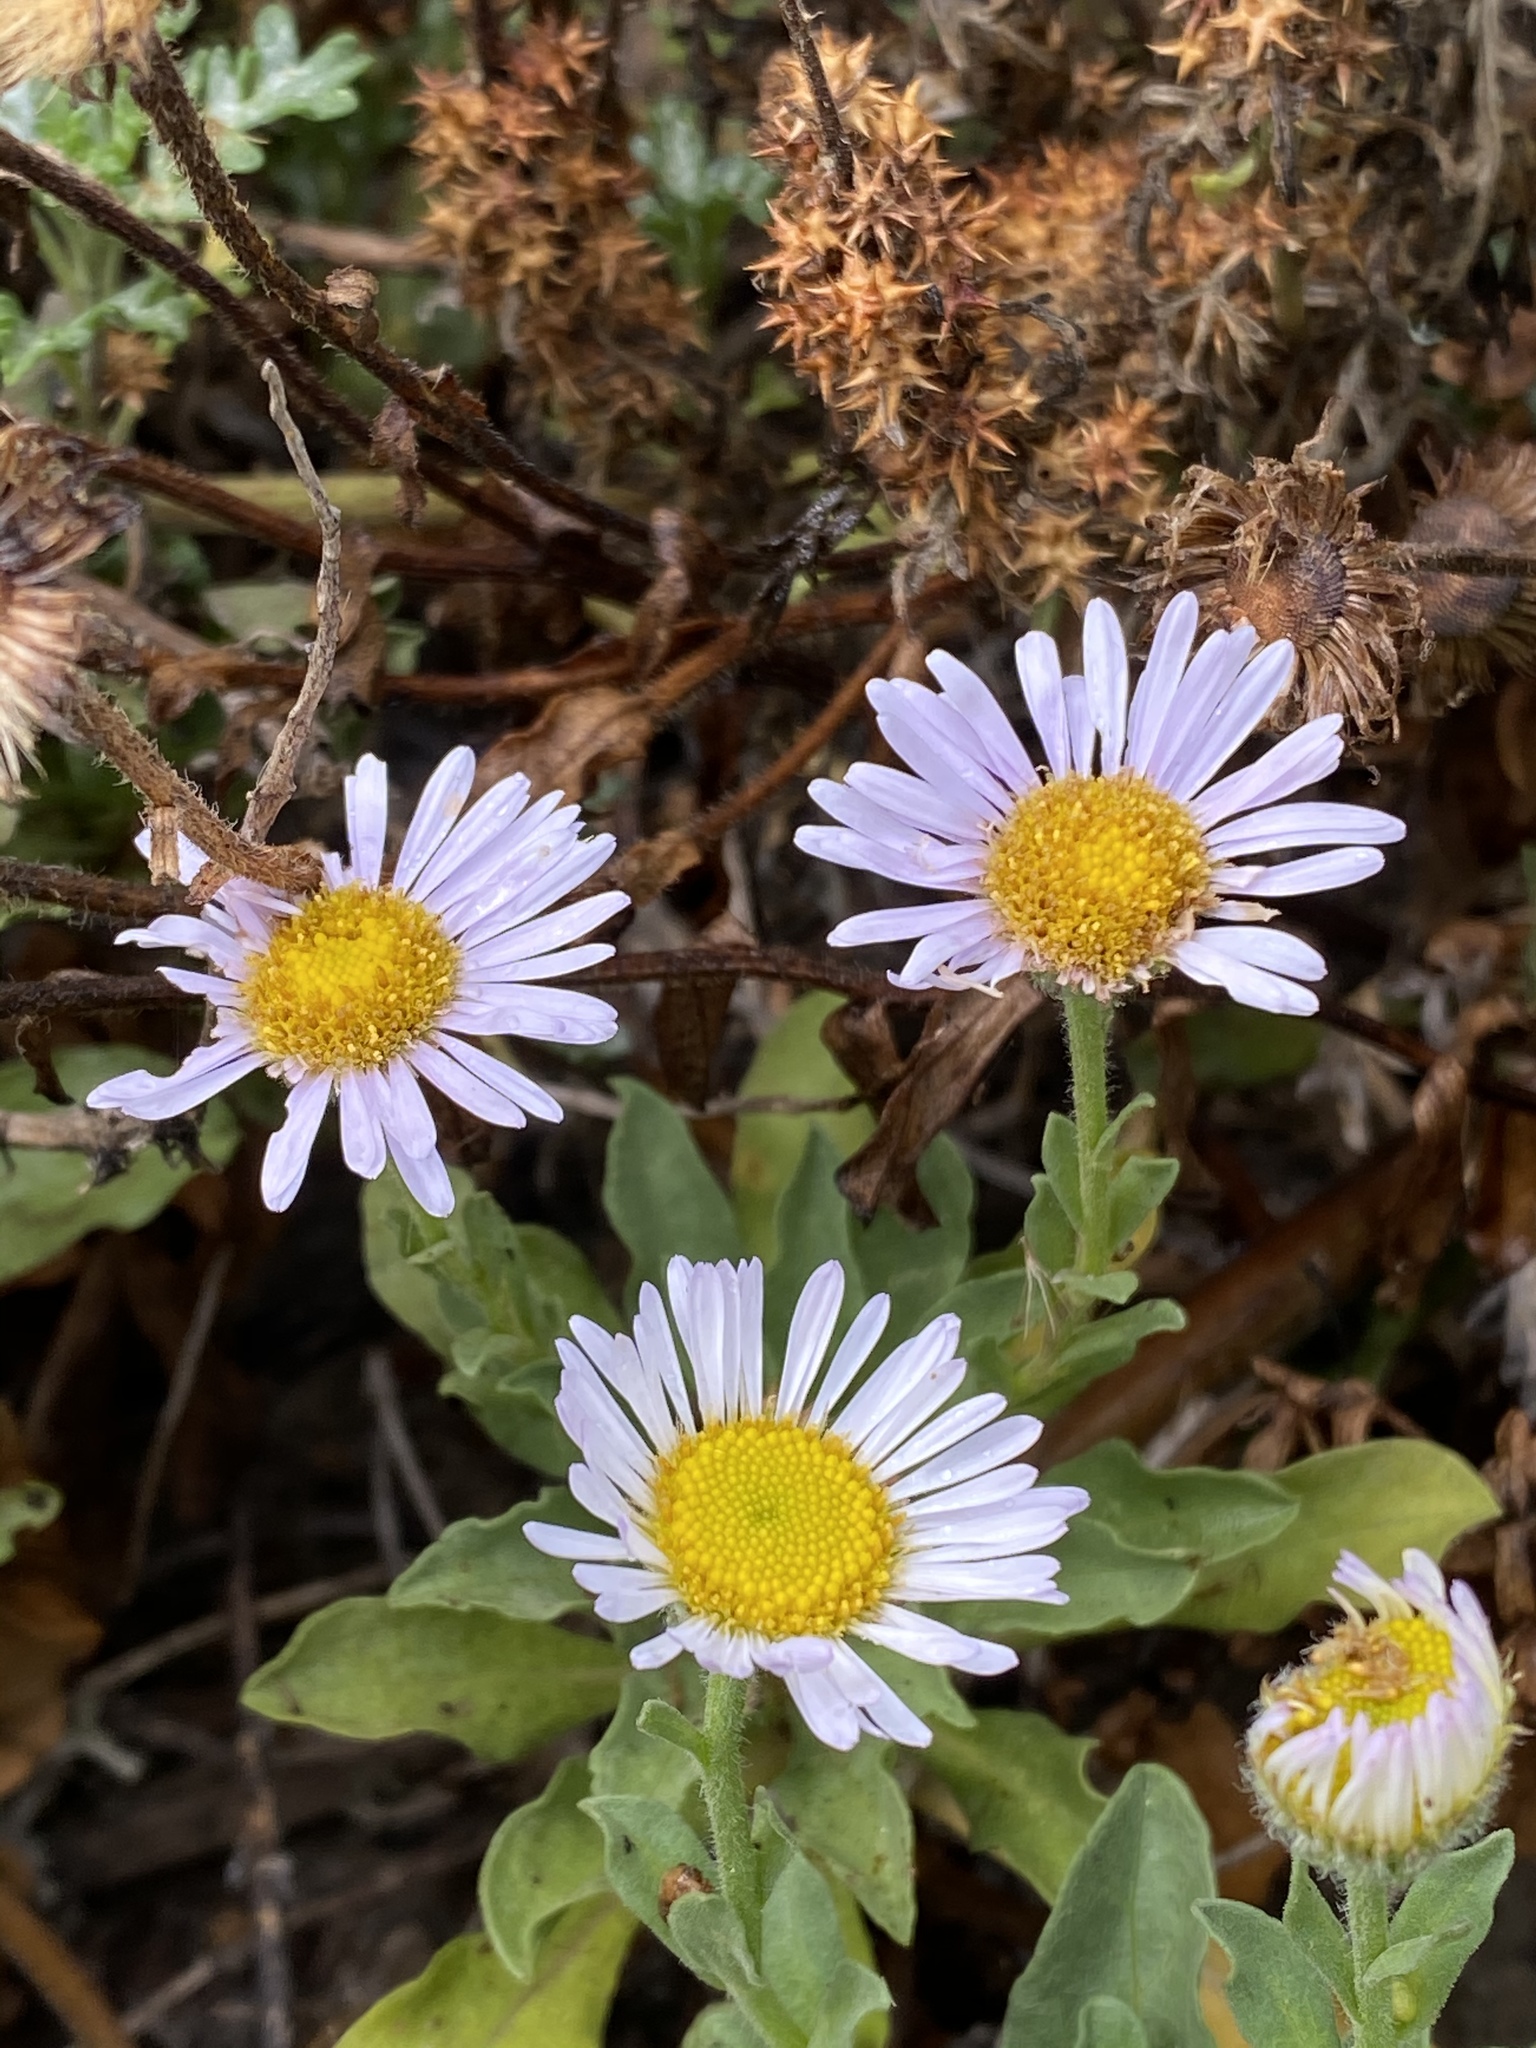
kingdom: Plantae
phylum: Tracheophyta
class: Magnoliopsida
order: Asterales
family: Asteraceae
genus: Erigeron
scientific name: Erigeron glaucus
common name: Seaside daisy
